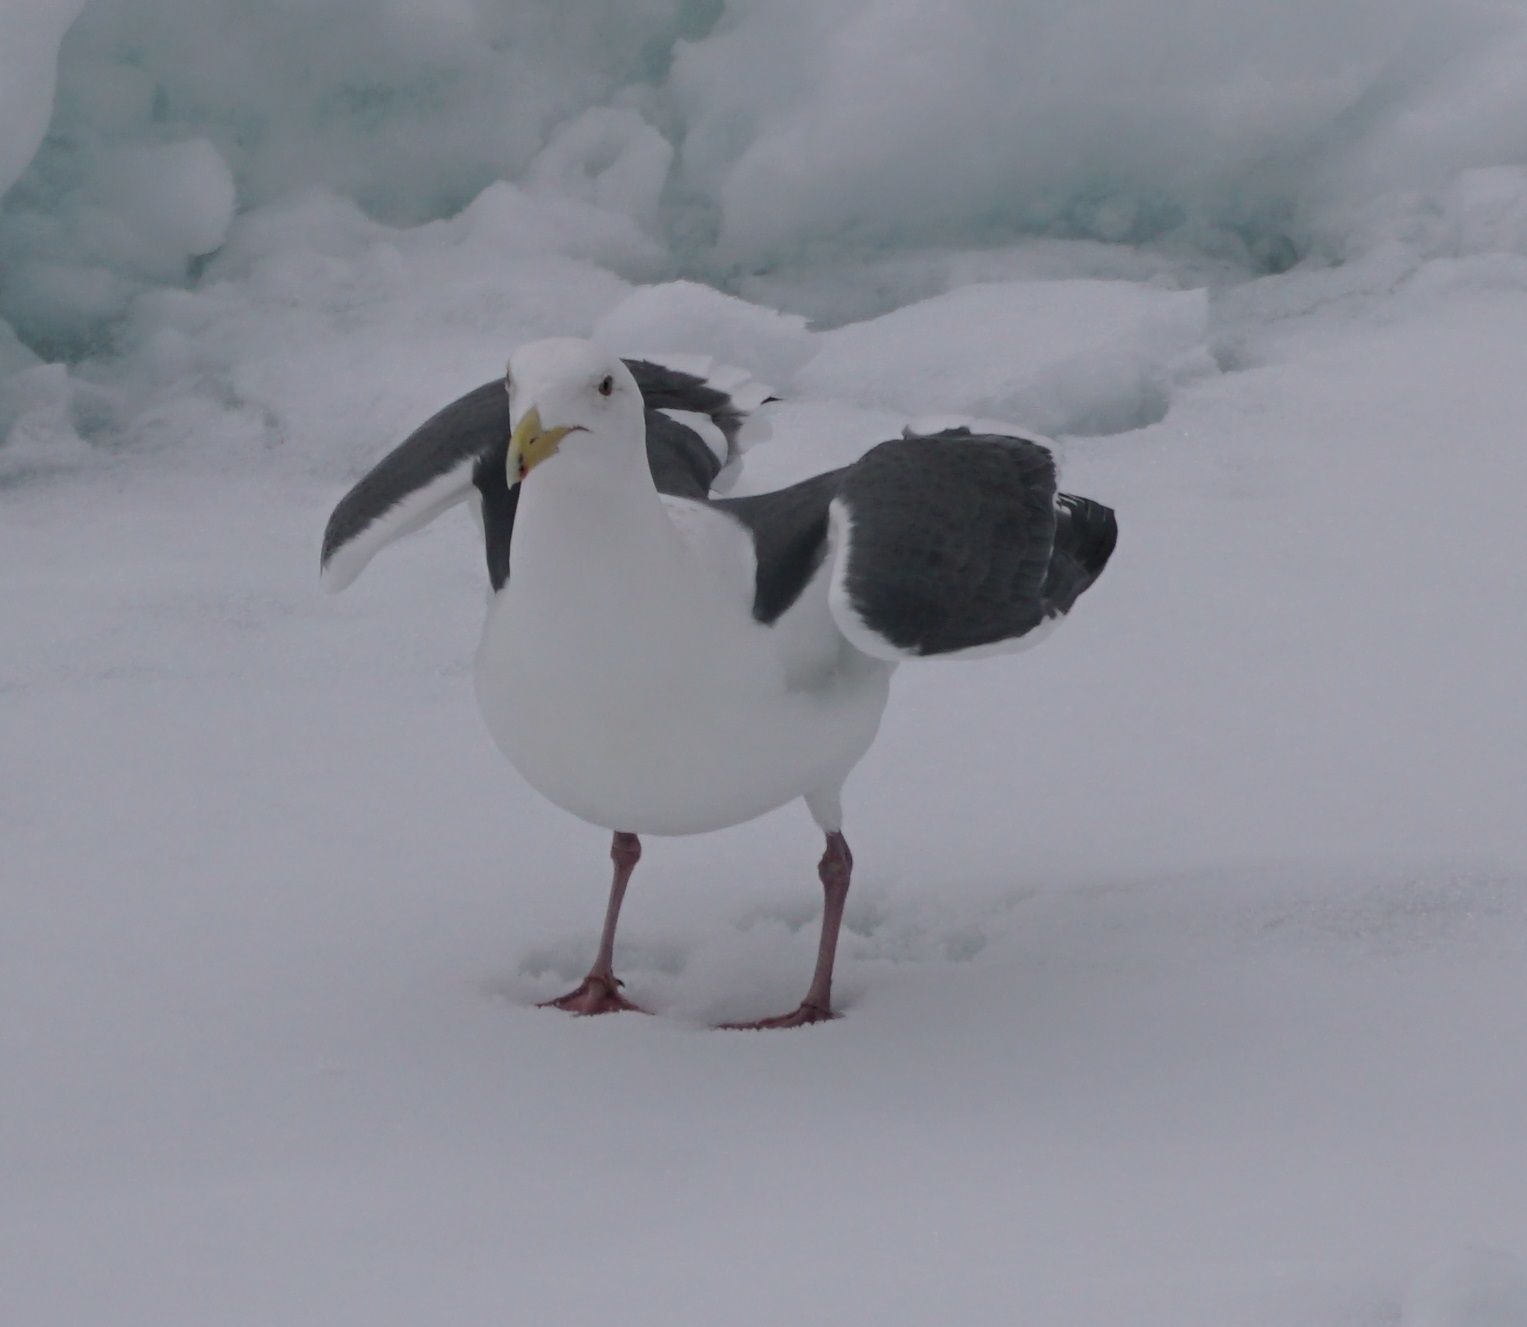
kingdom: Animalia
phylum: Chordata
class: Aves
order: Charadriiformes
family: Laridae
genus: Larus
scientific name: Larus schistisagus
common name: Slaty-backed gull
